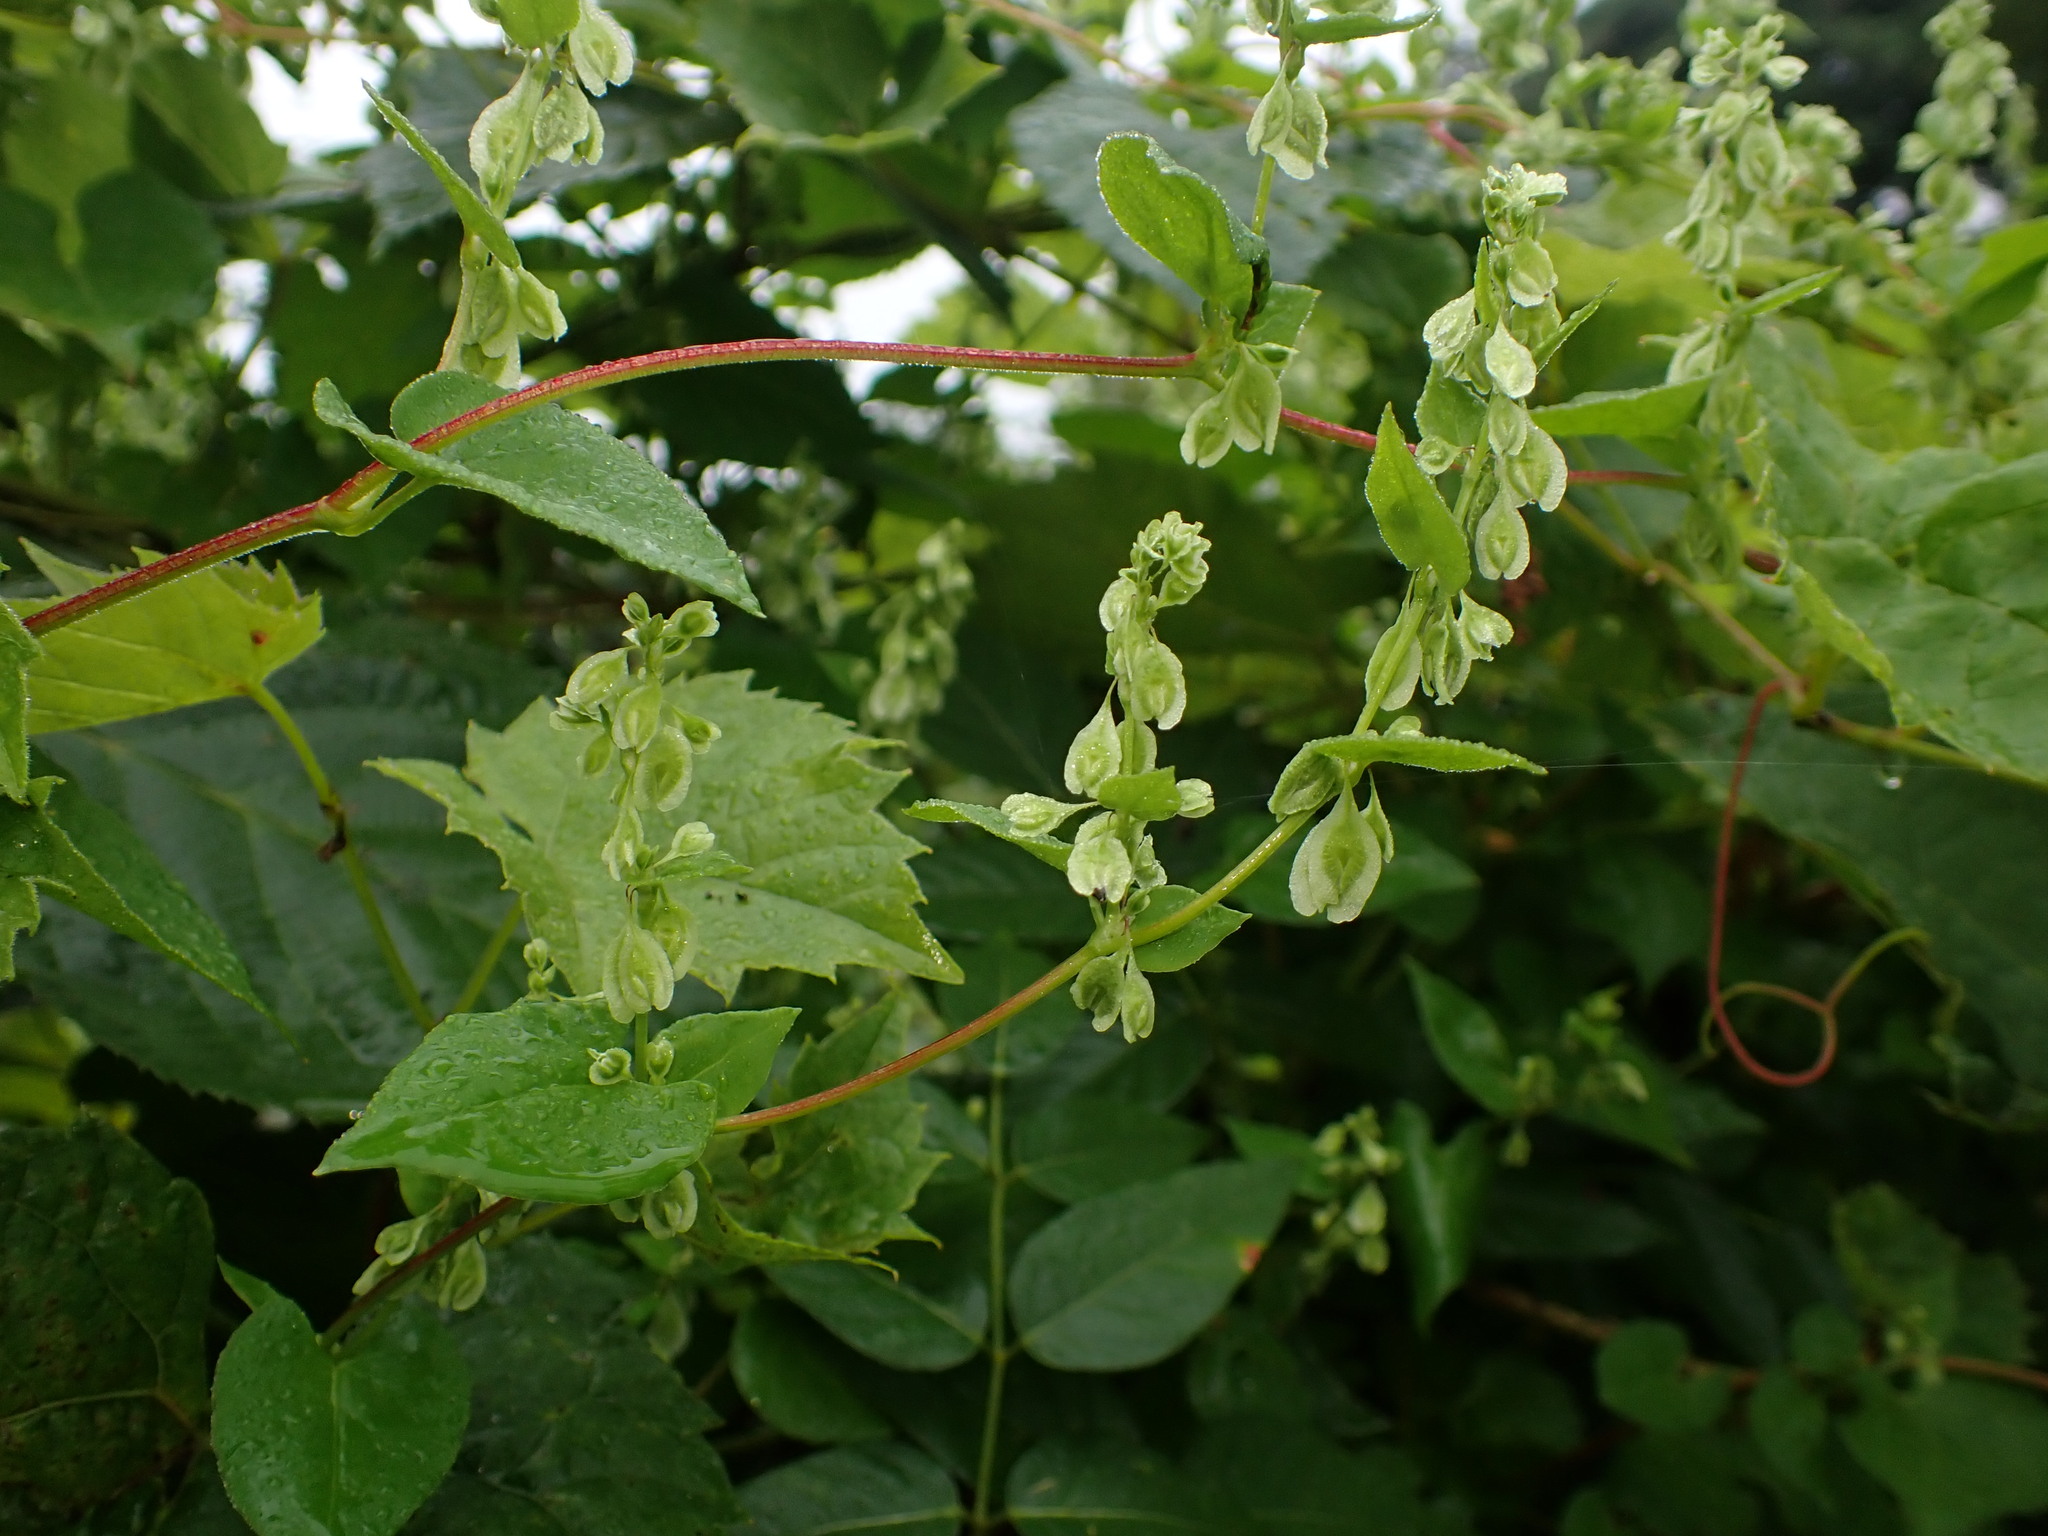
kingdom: Plantae
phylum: Tracheophyta
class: Magnoliopsida
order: Caryophyllales
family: Polygonaceae
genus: Fallopia
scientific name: Fallopia scandens
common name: Climbing false buckwheat
